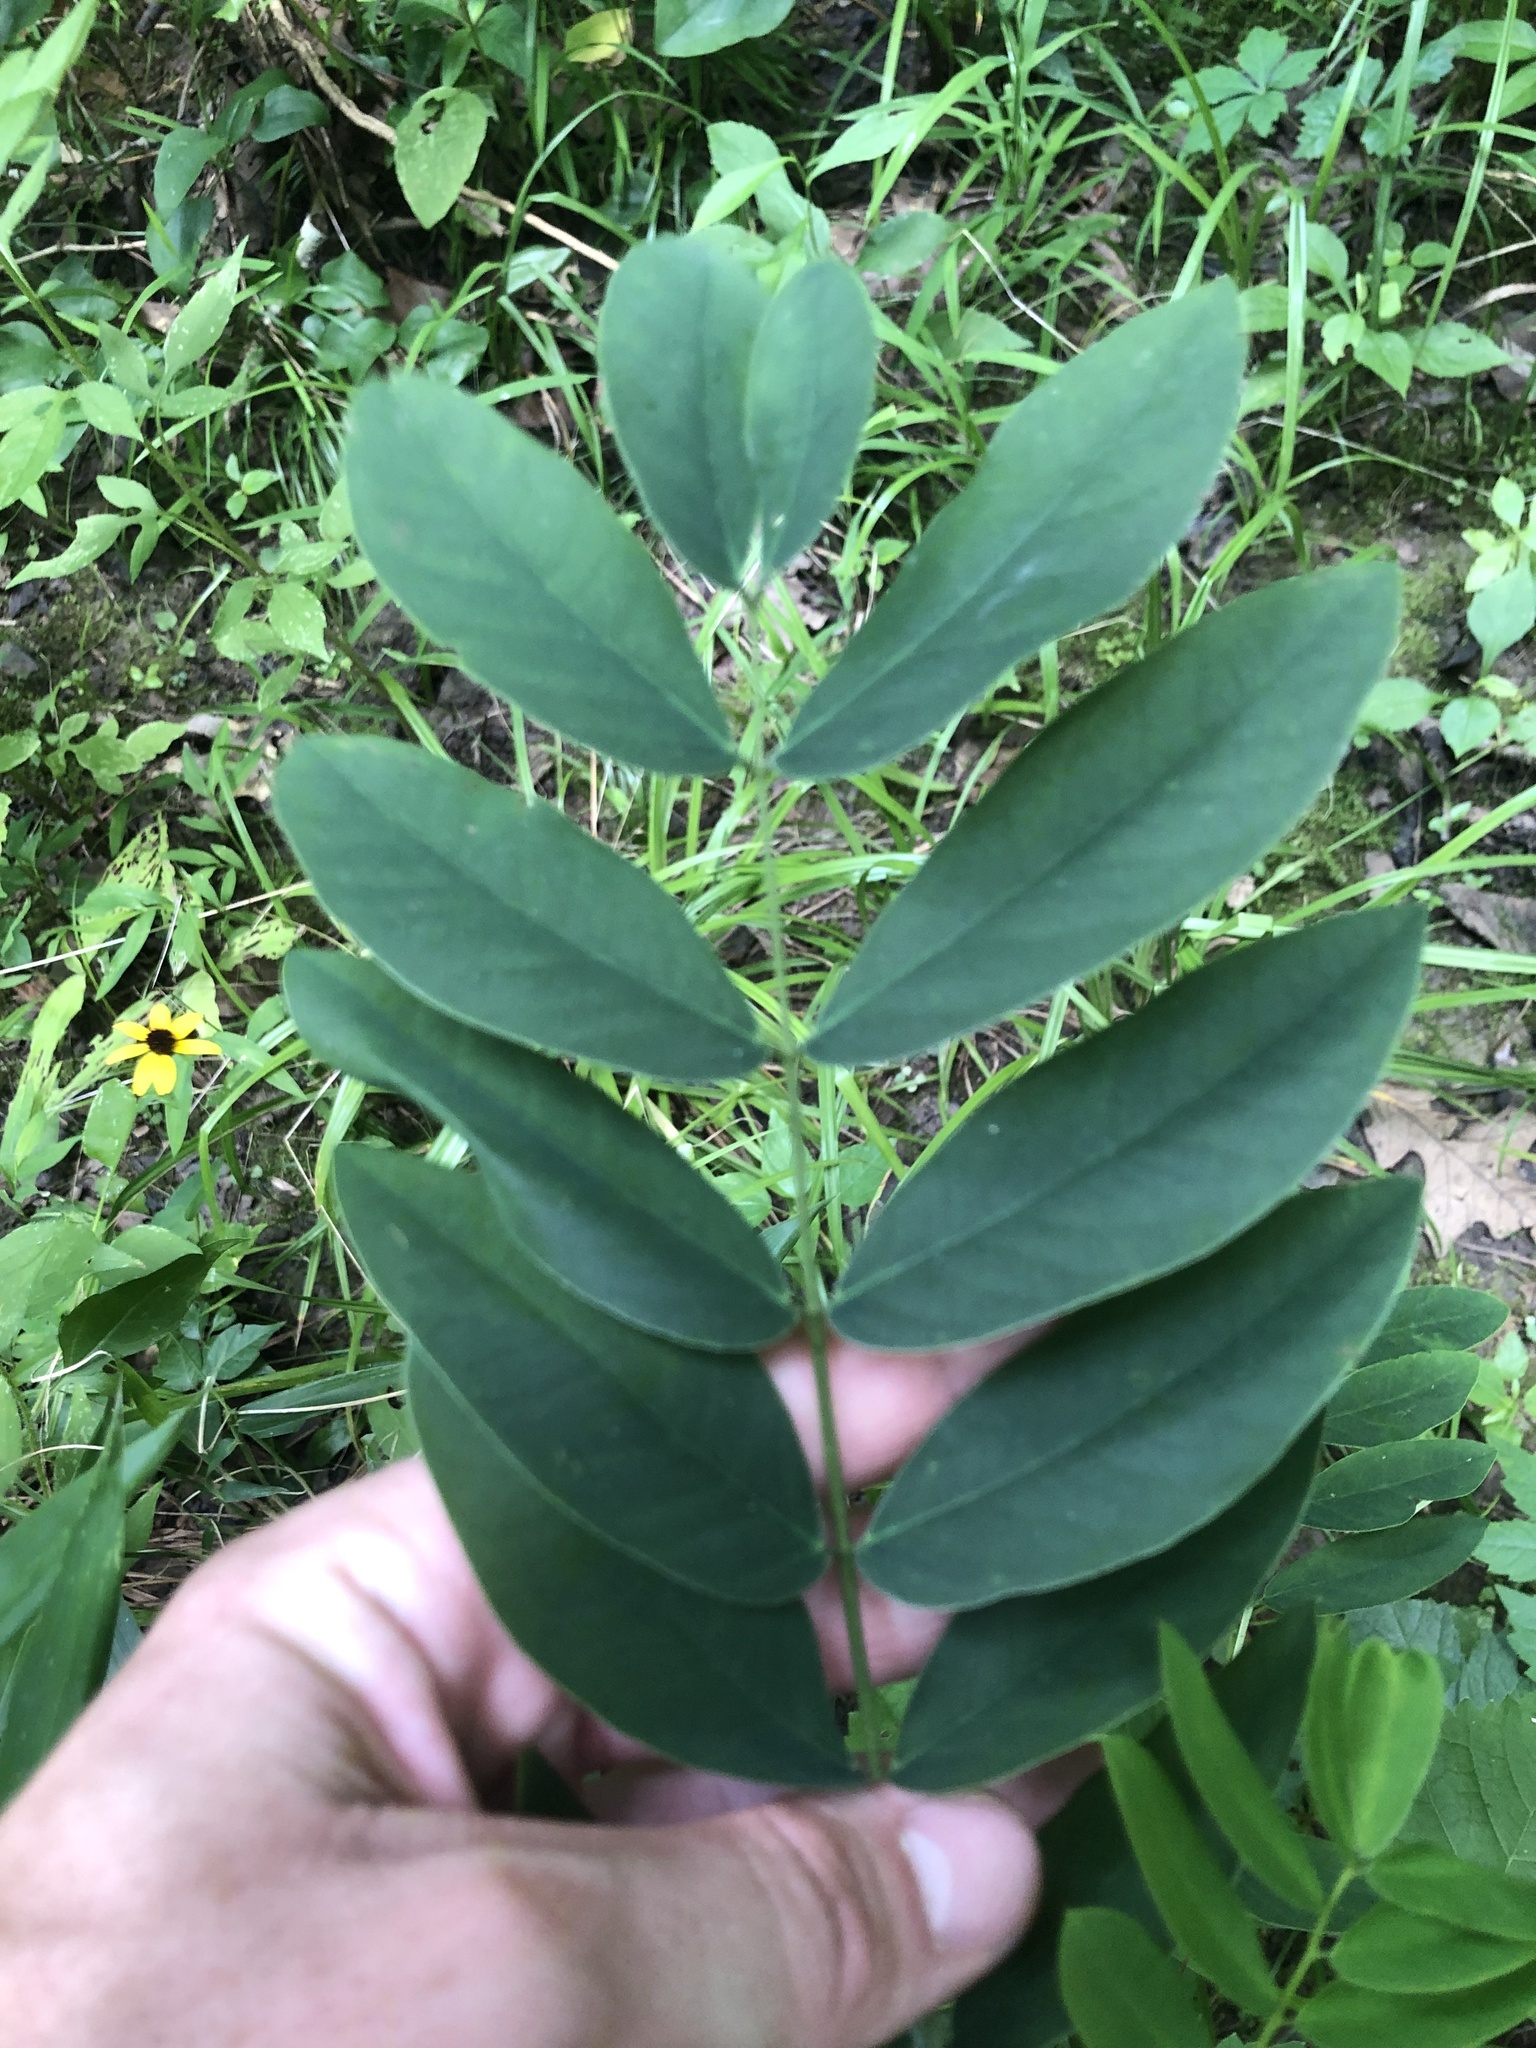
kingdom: Plantae
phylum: Tracheophyta
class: Magnoliopsida
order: Fabales
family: Fabaceae
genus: Senna
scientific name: Senna marilandica
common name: American senna
